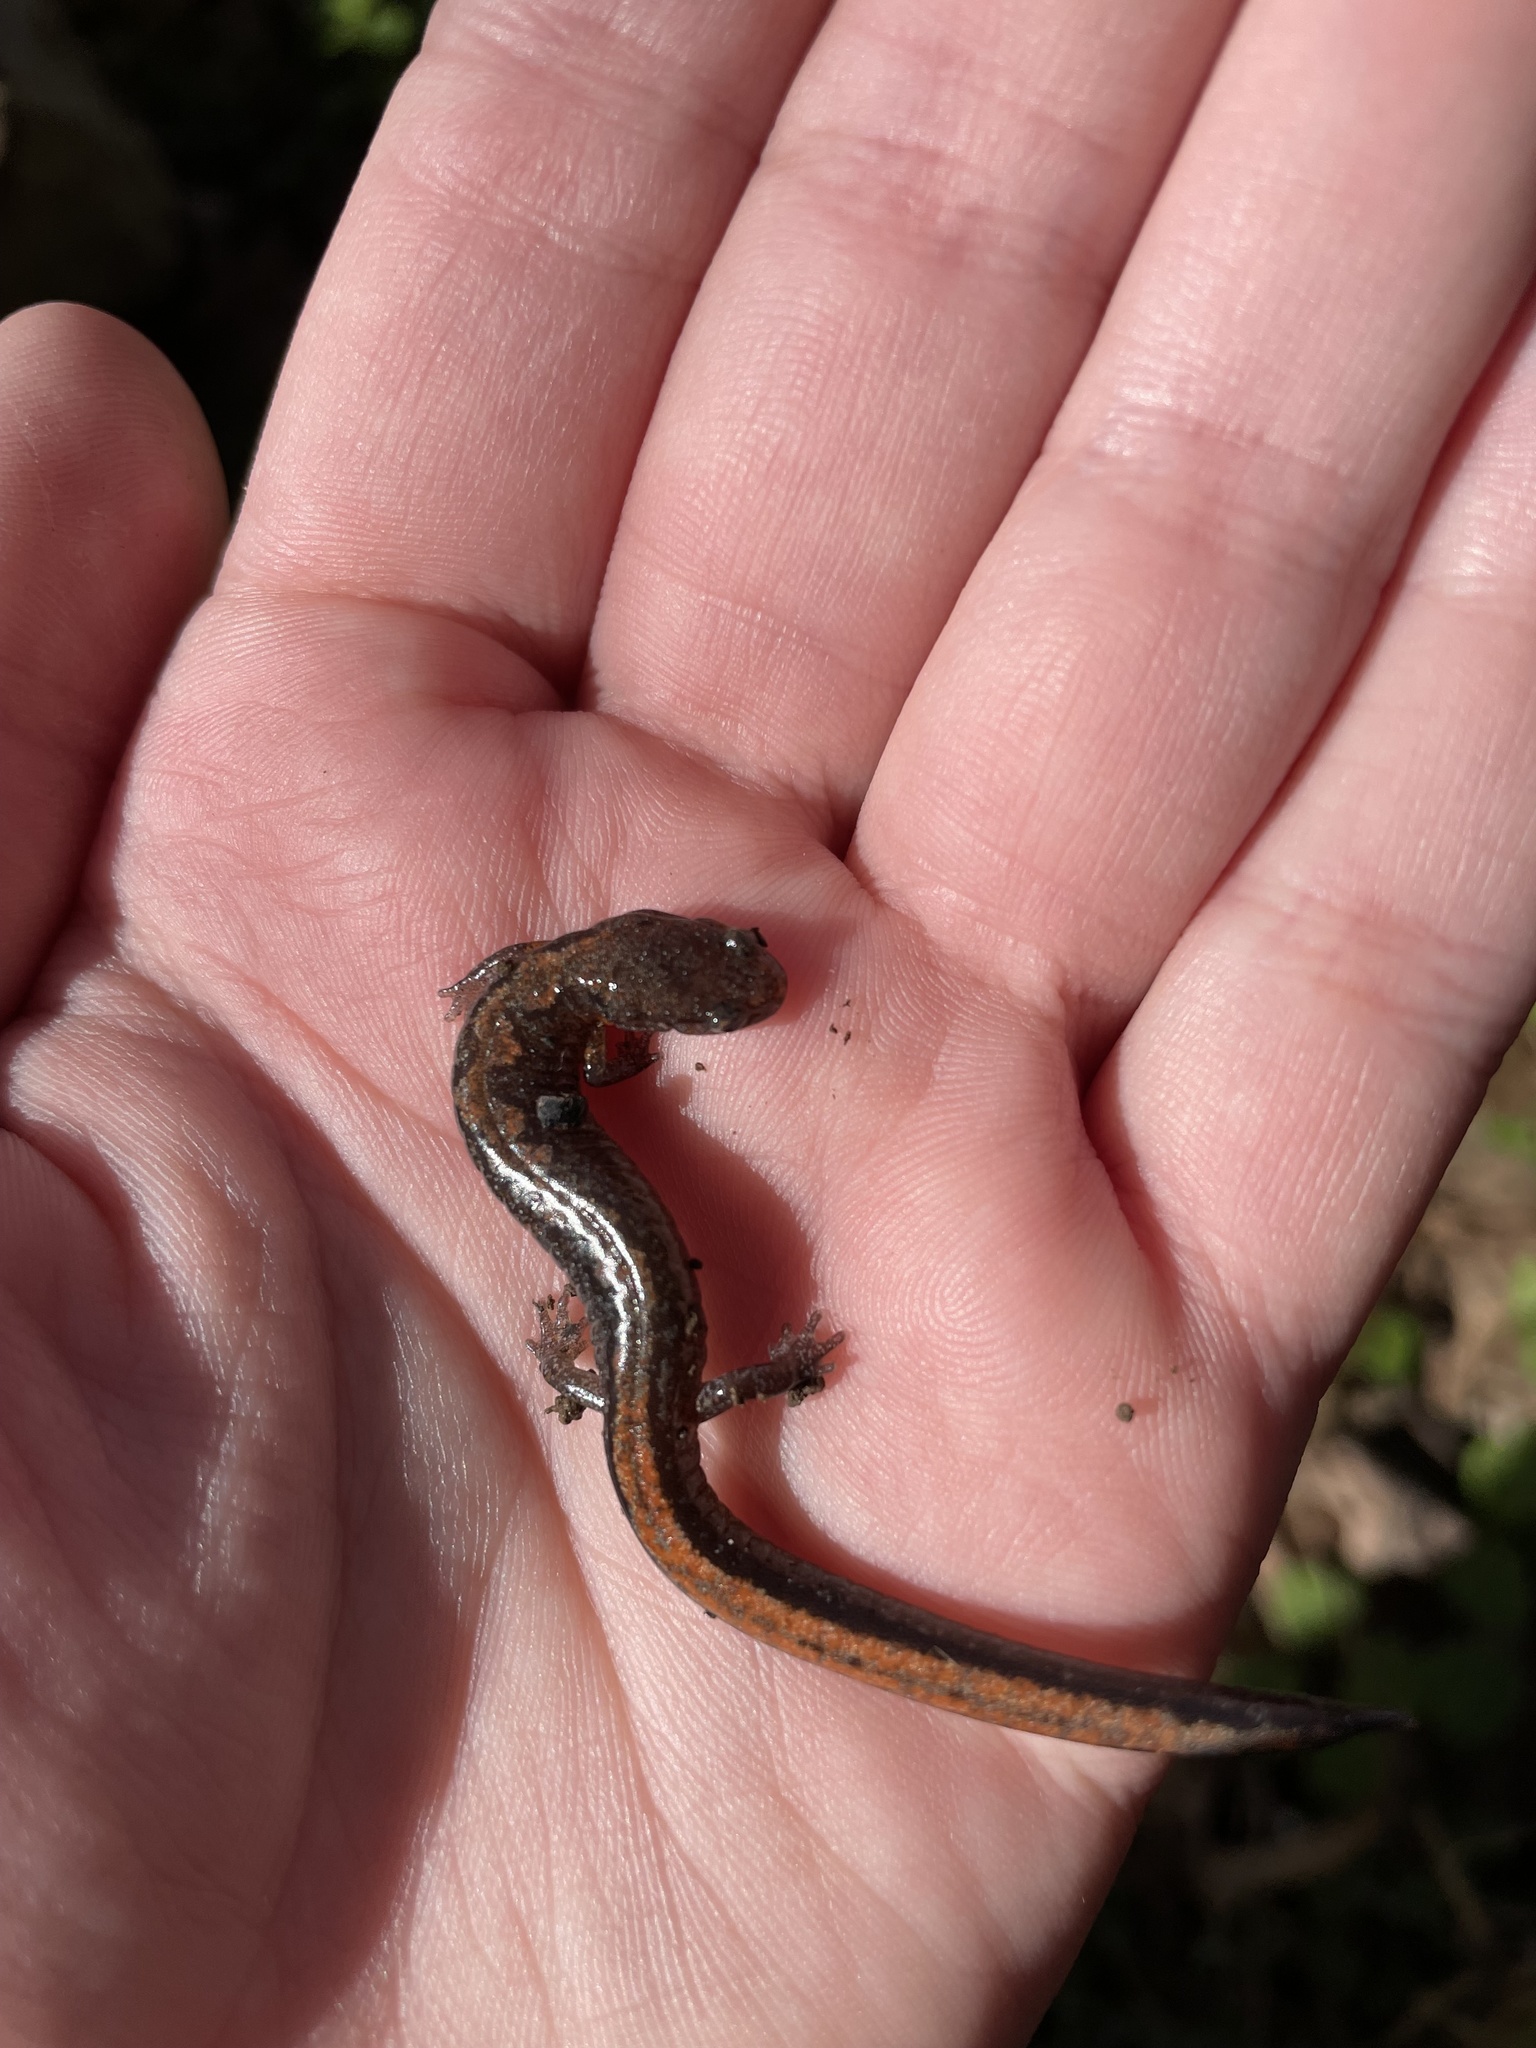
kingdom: Animalia
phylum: Chordata
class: Amphibia
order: Caudata
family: Plethodontidae
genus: Plethodon
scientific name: Plethodon dorsalis
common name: Northern zigzag salamander
